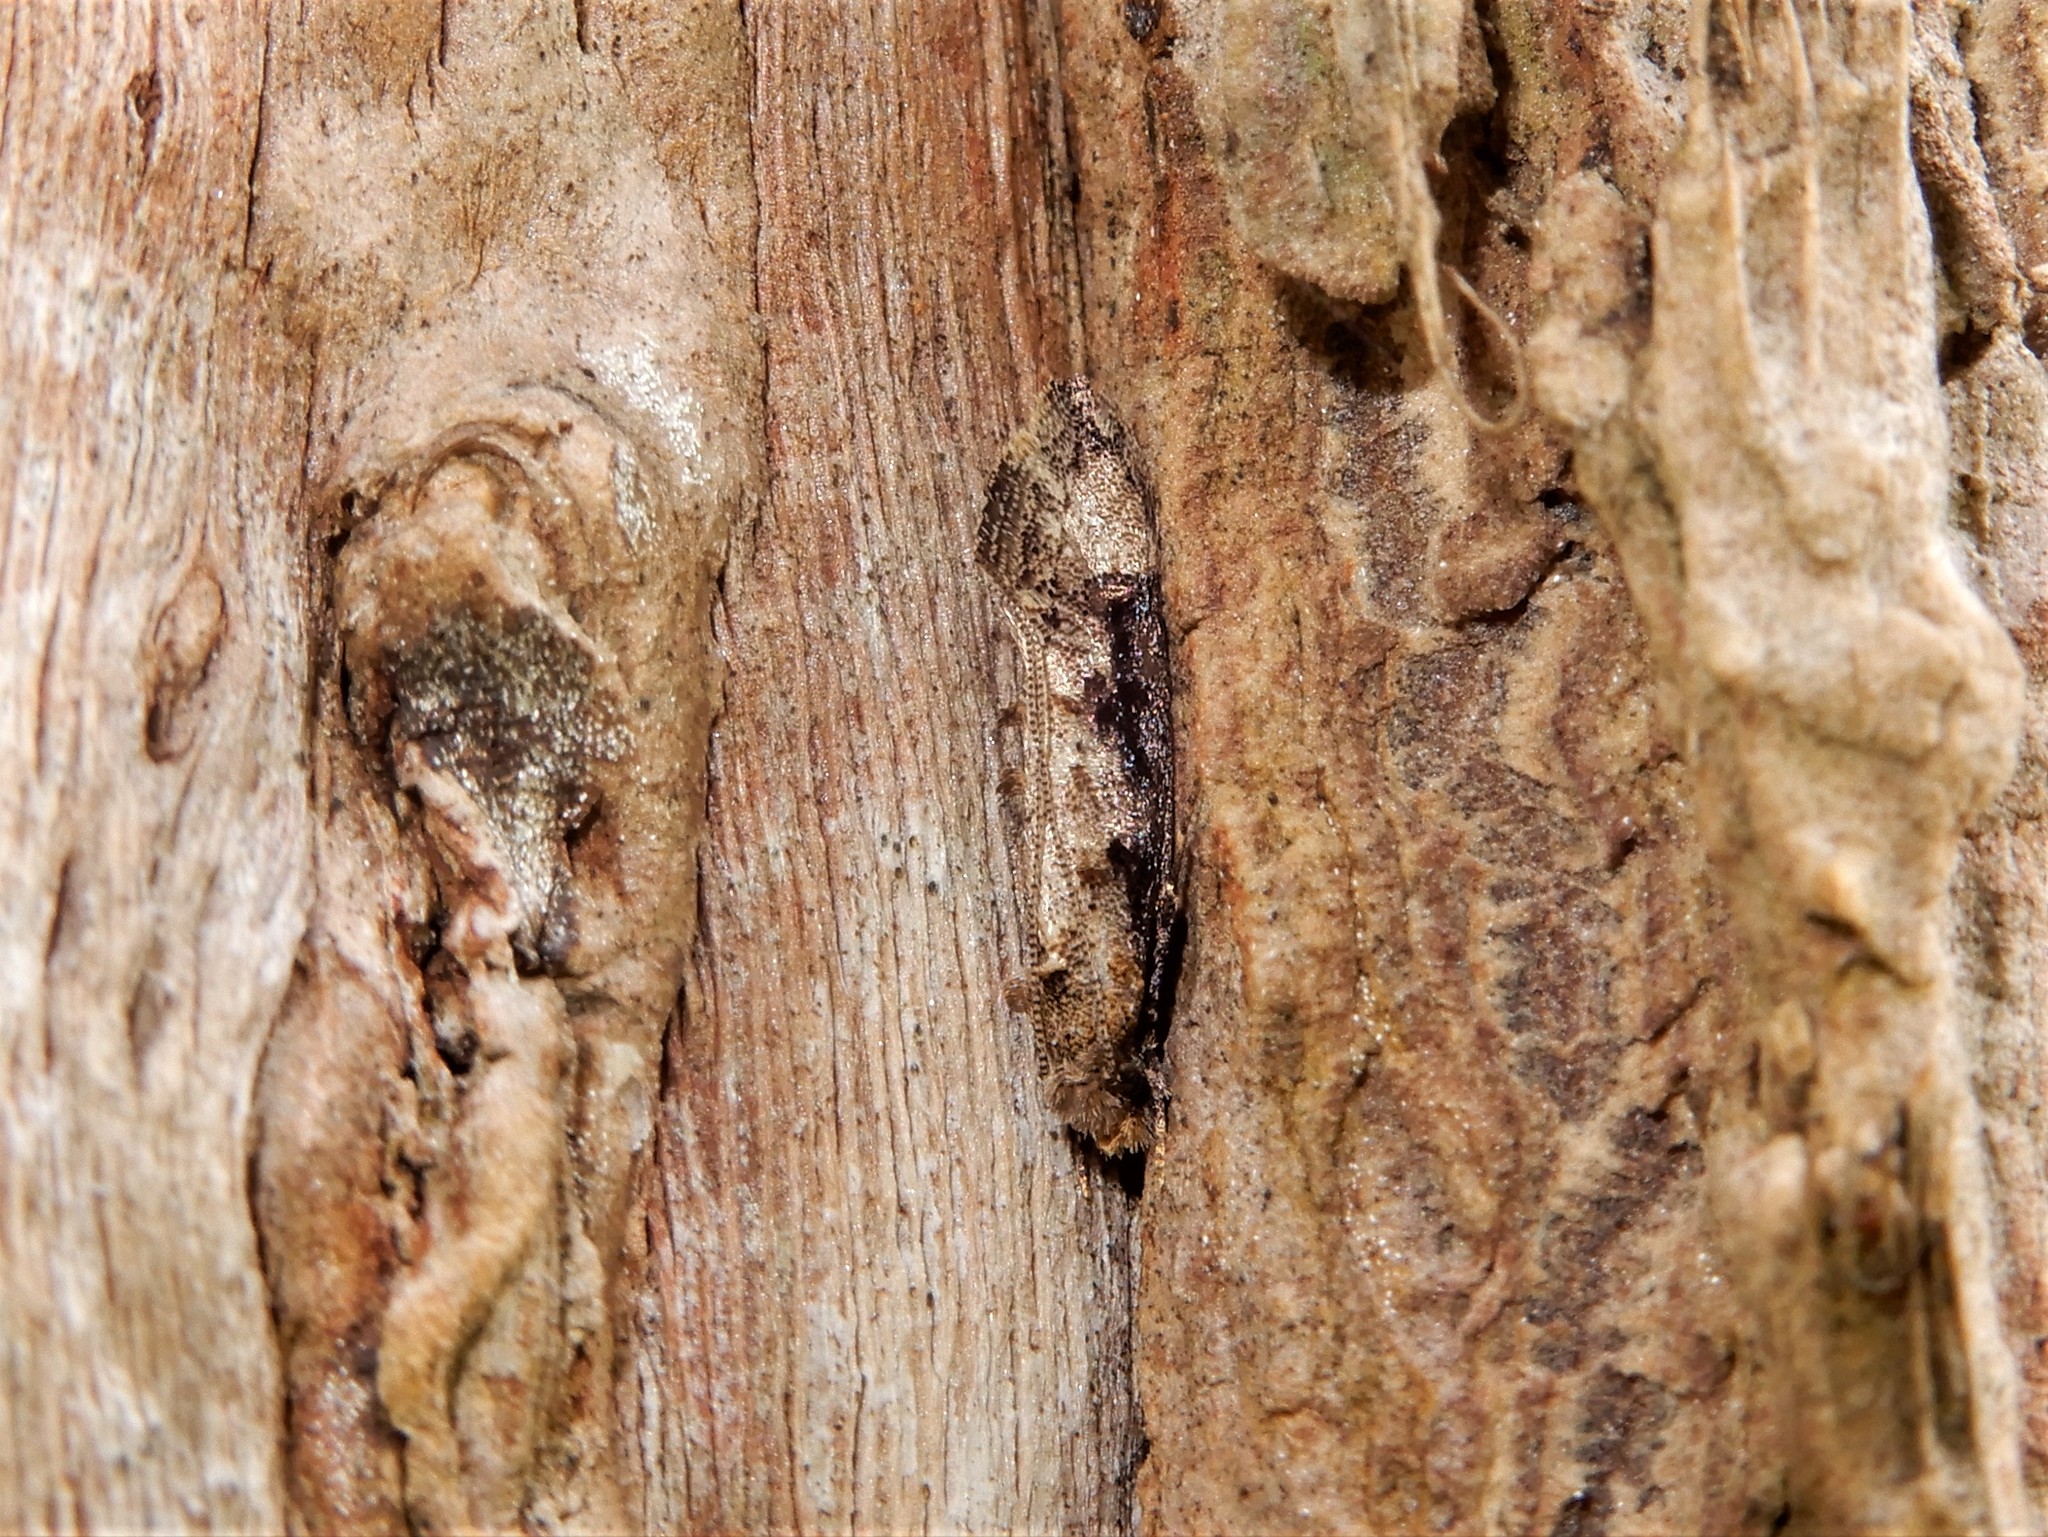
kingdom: Animalia
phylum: Arthropoda
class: Insecta
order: Lepidoptera
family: Tineidae
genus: Trithamnora
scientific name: Trithamnora certella
